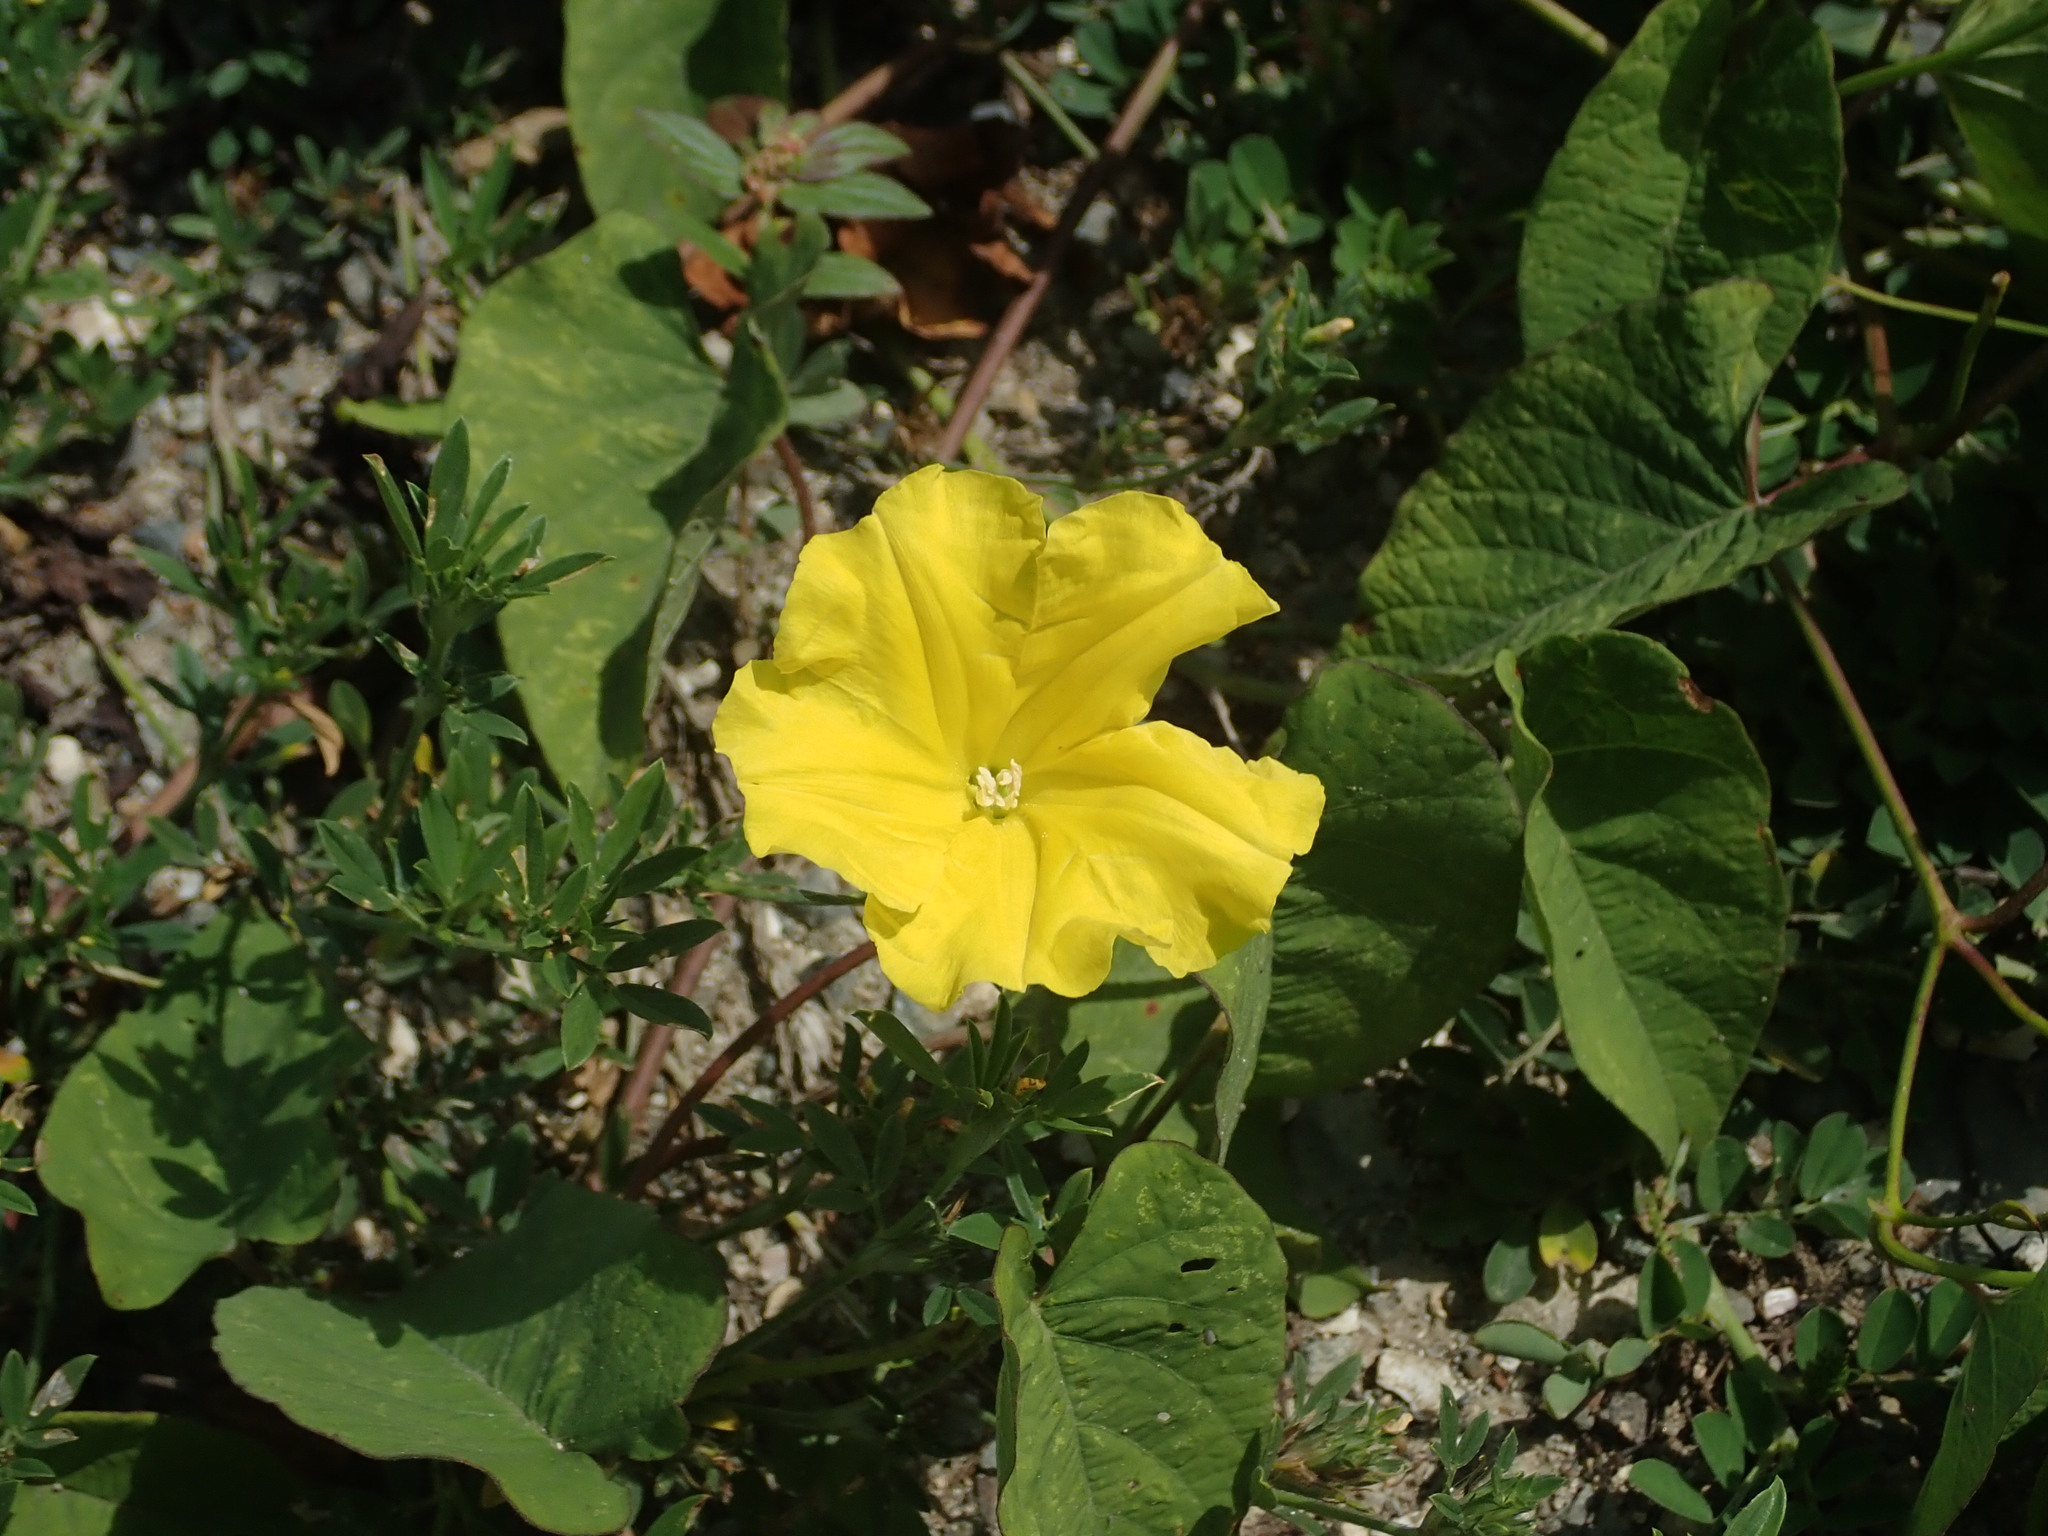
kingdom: Plantae
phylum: Tracheophyta
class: Magnoliopsida
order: Solanales
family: Convolvulaceae
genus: Camonea
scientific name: Camonea umbellata
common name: Hogvine
